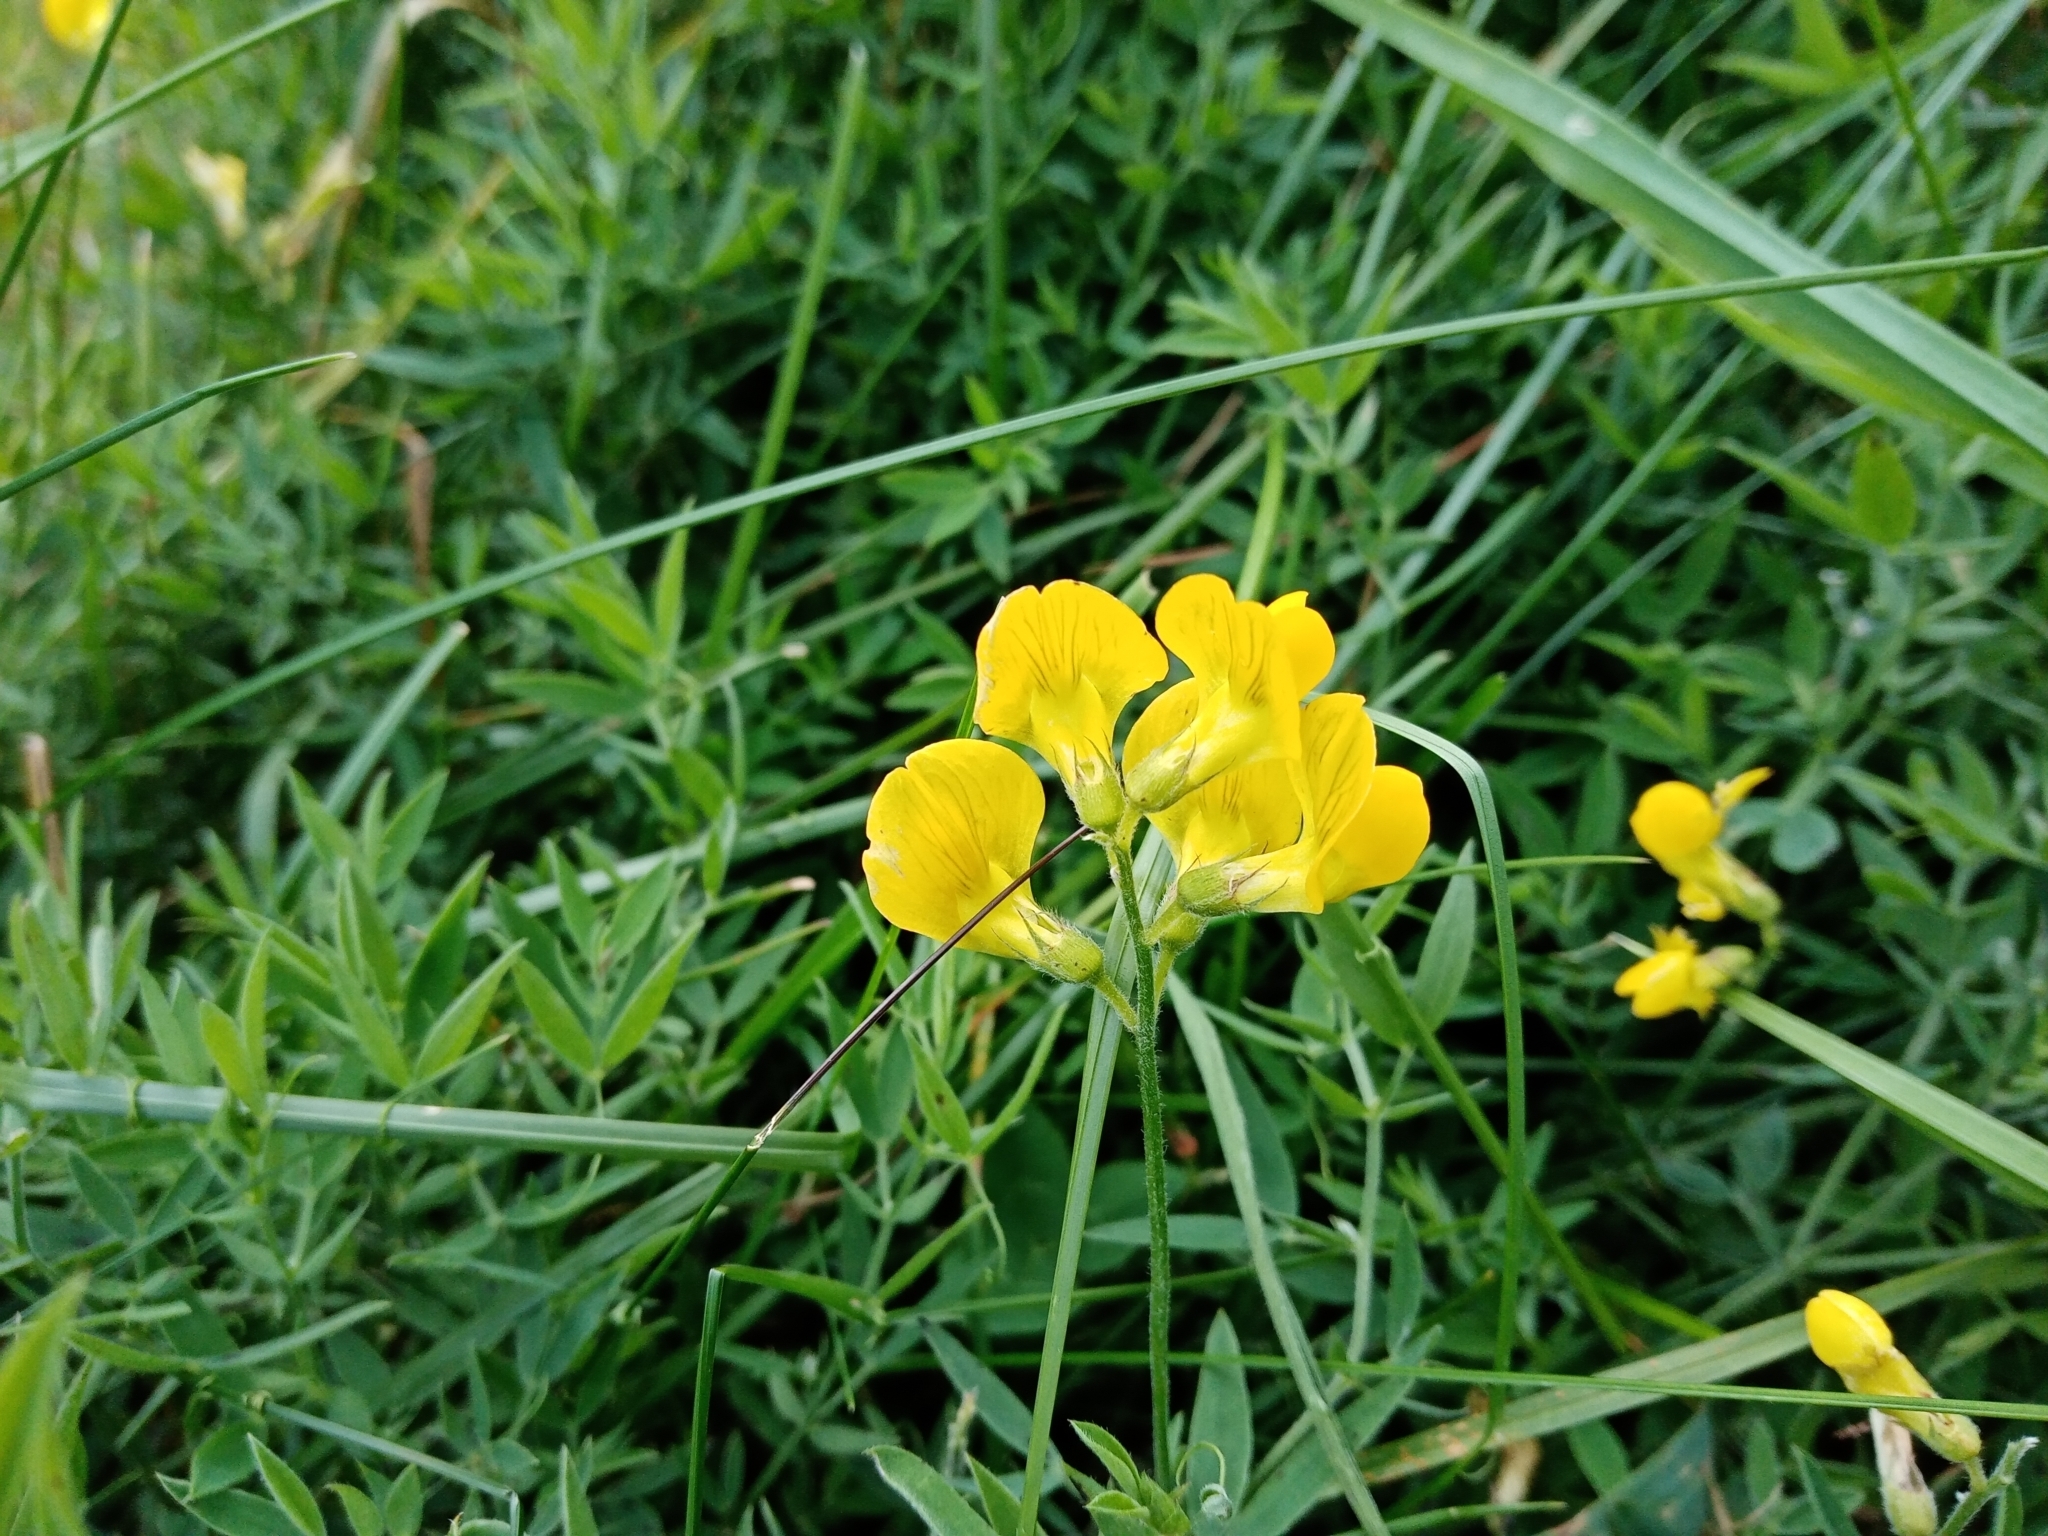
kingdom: Plantae
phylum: Tracheophyta
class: Magnoliopsida
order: Fabales
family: Fabaceae
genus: Lathyrus
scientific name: Lathyrus pratensis
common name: Meadow vetchling
